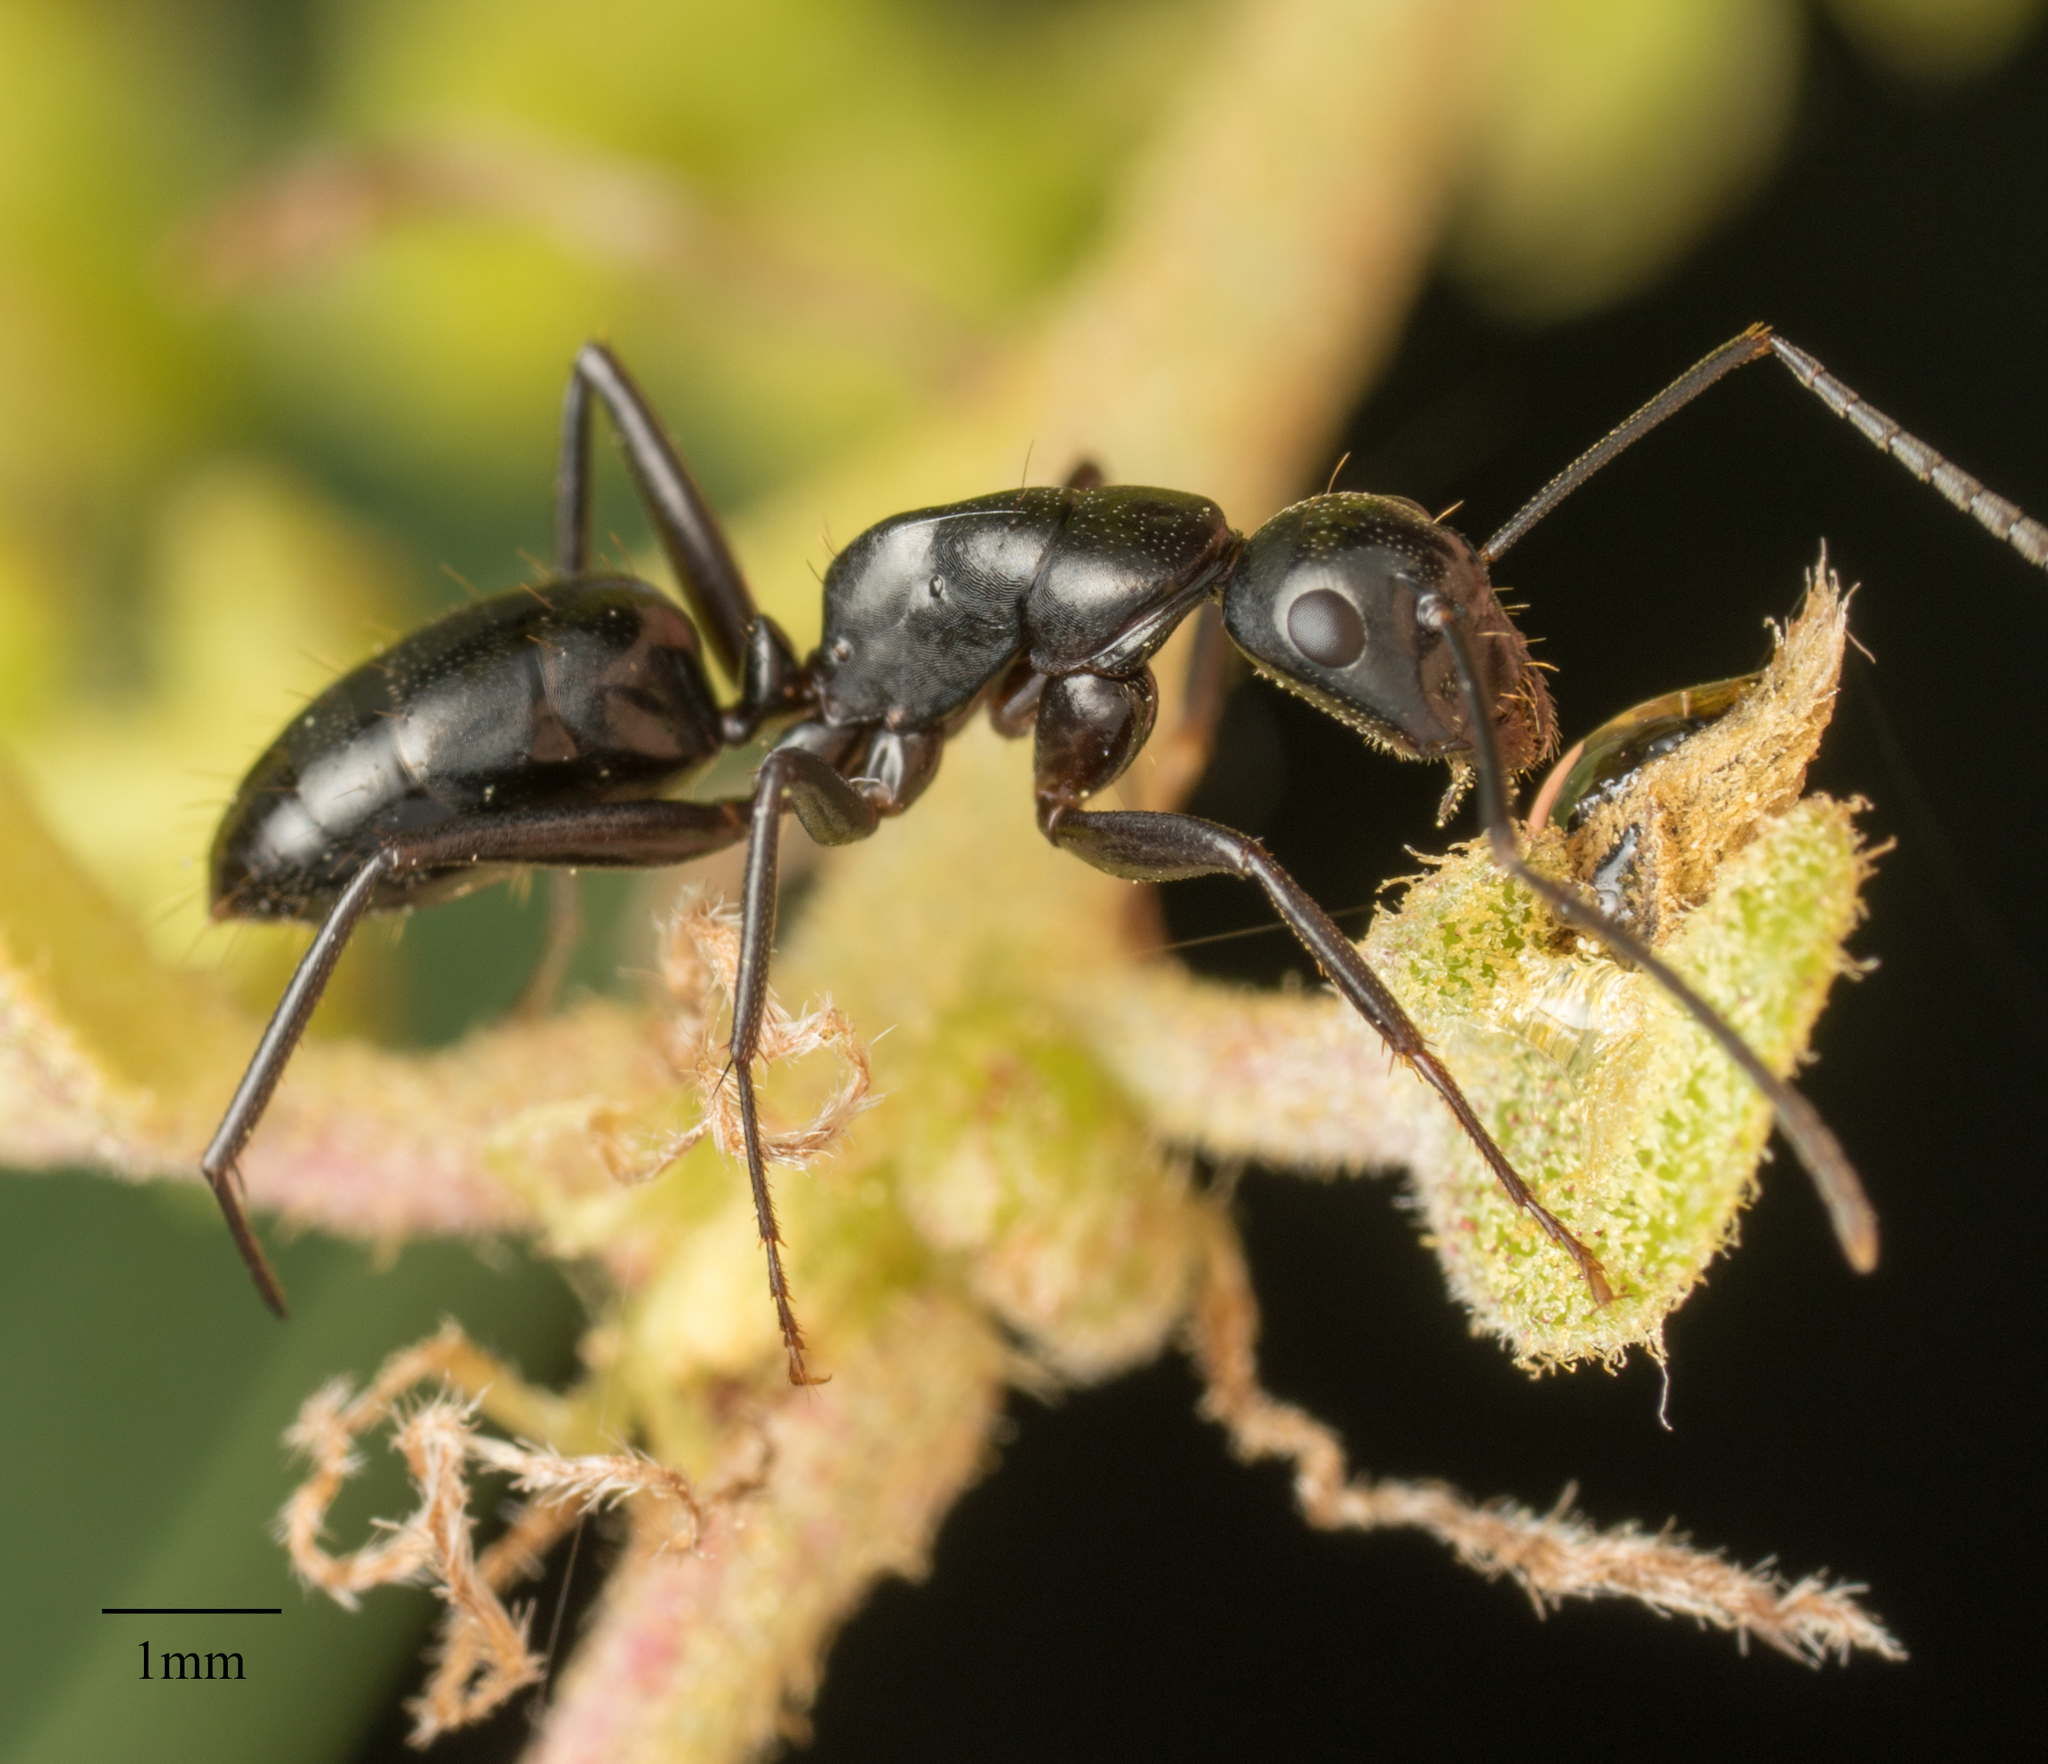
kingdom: Animalia
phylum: Arthropoda
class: Insecta
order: Hymenoptera
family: Formicidae
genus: Camponotus
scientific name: Camponotus laevigatus
